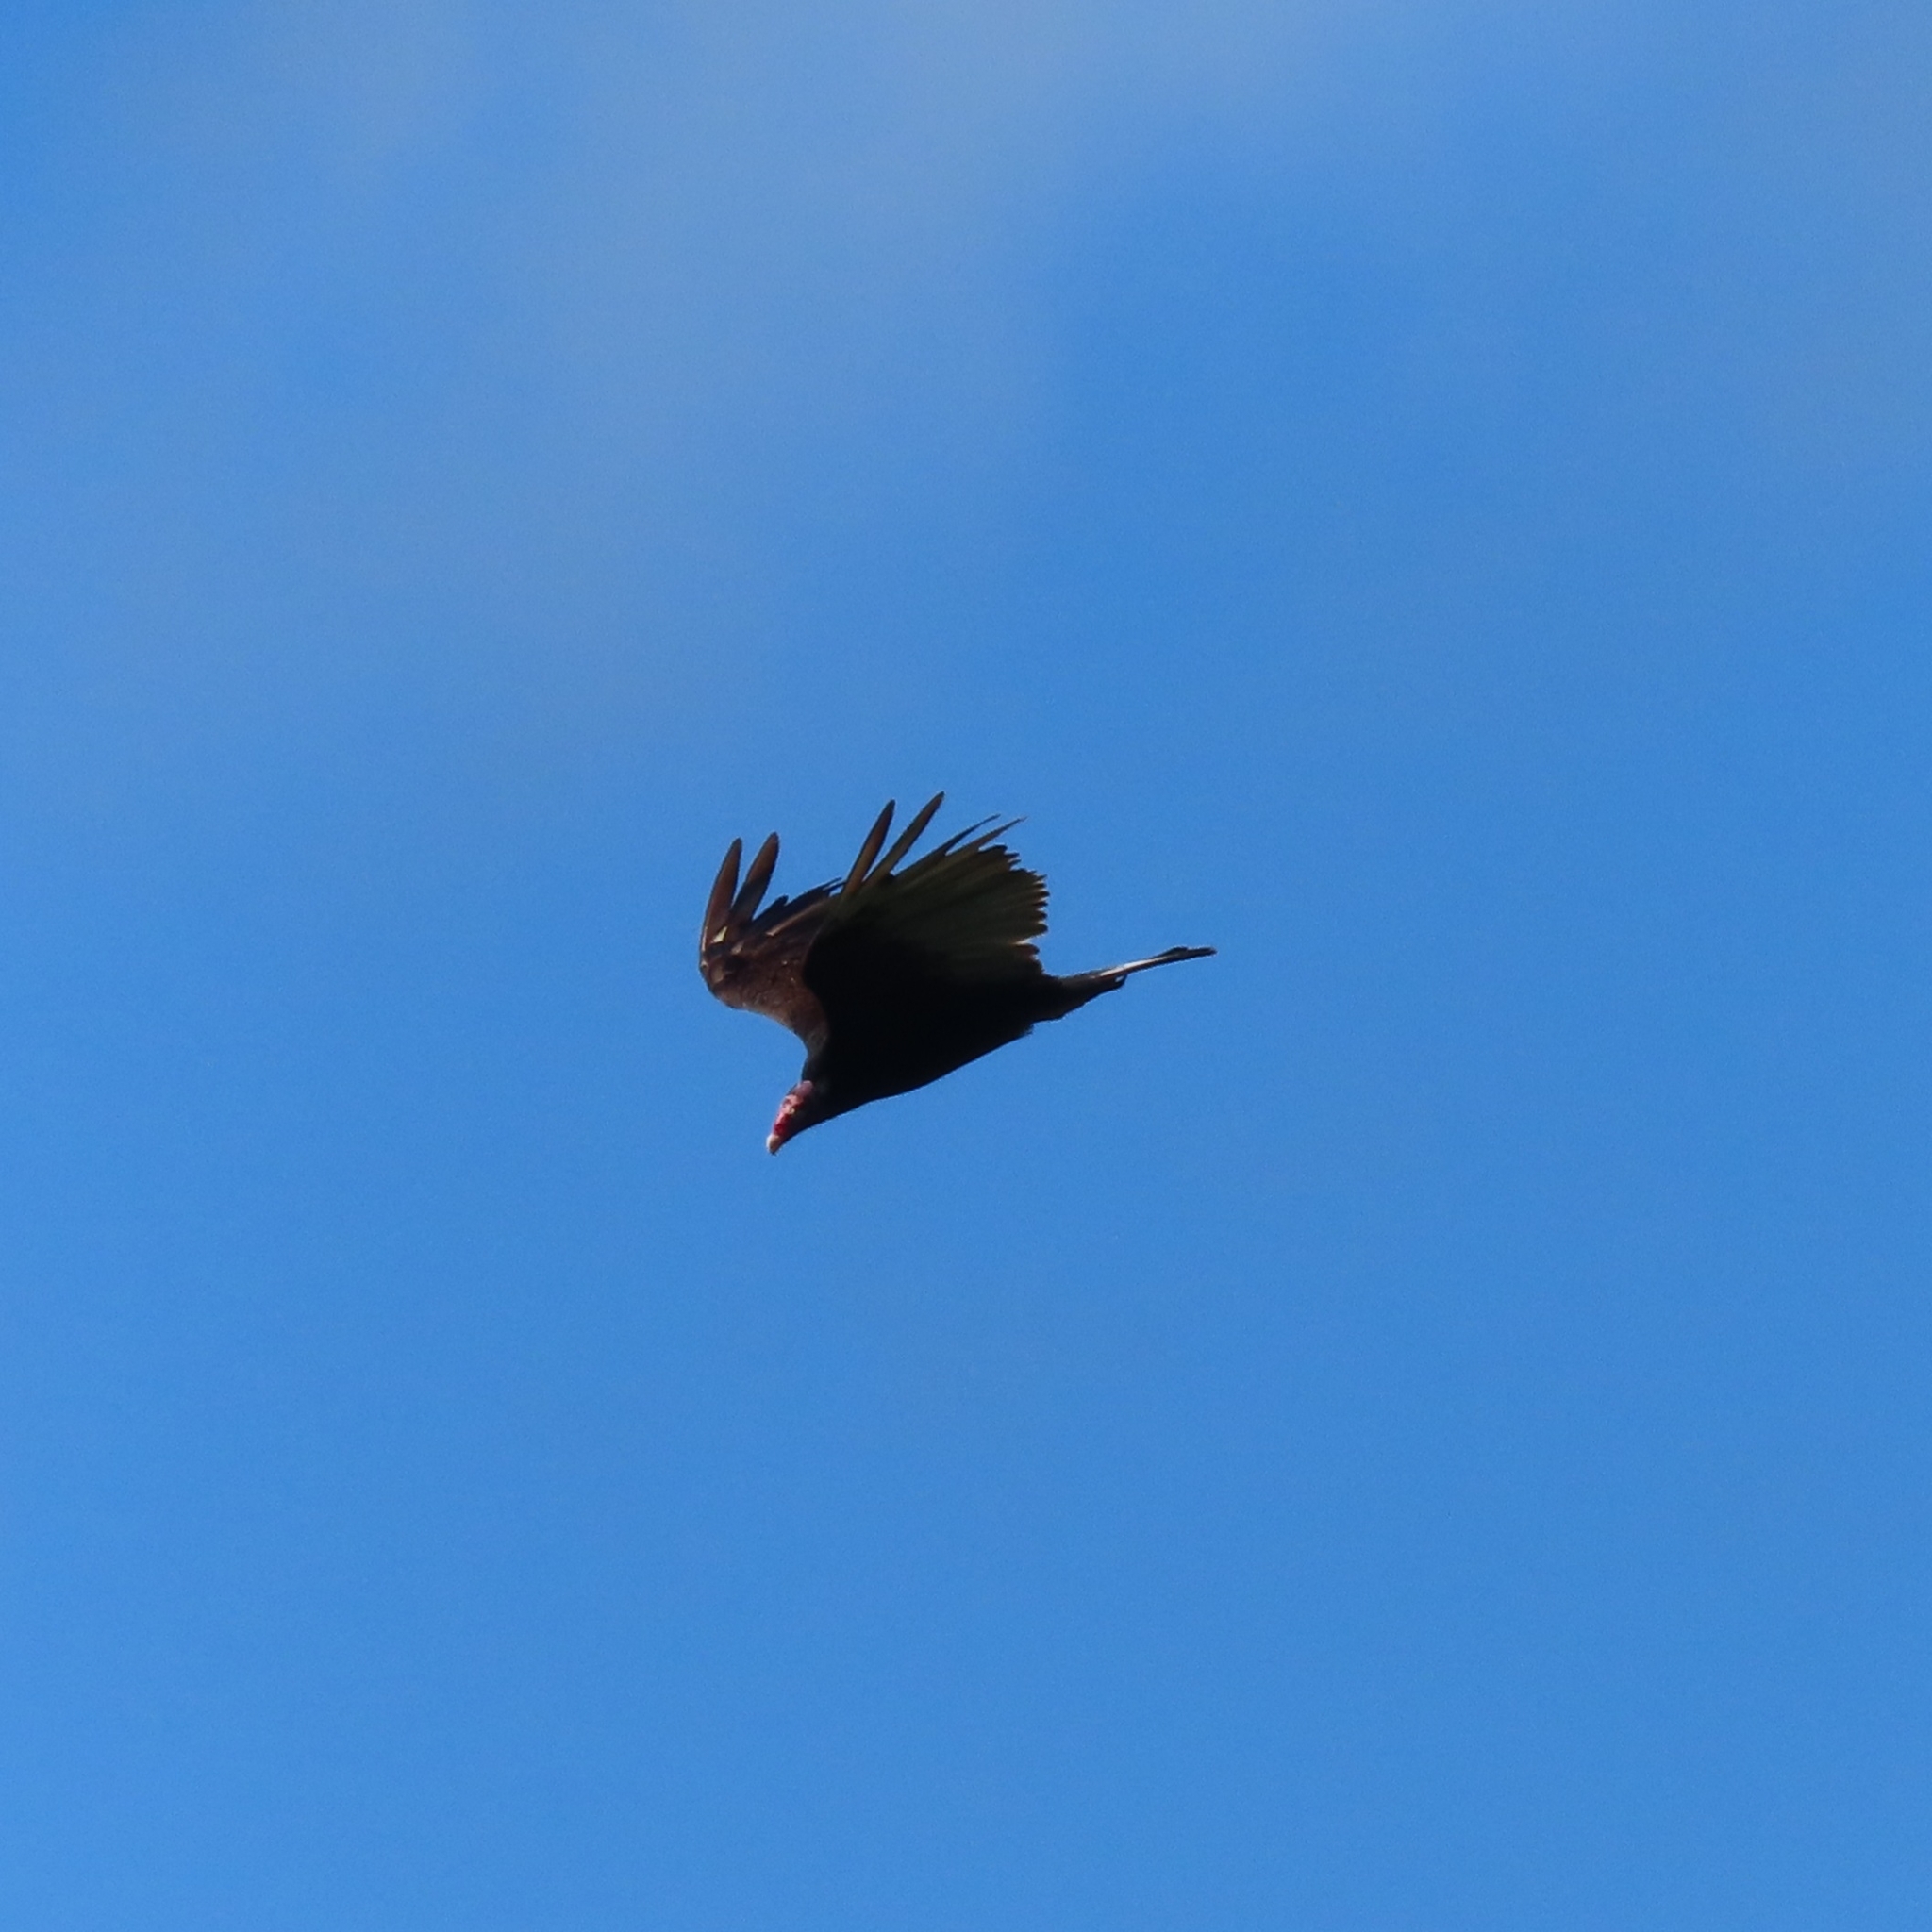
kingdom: Animalia
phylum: Chordata
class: Aves
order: Accipitriformes
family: Cathartidae
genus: Cathartes
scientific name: Cathartes aura
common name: Turkey vulture
